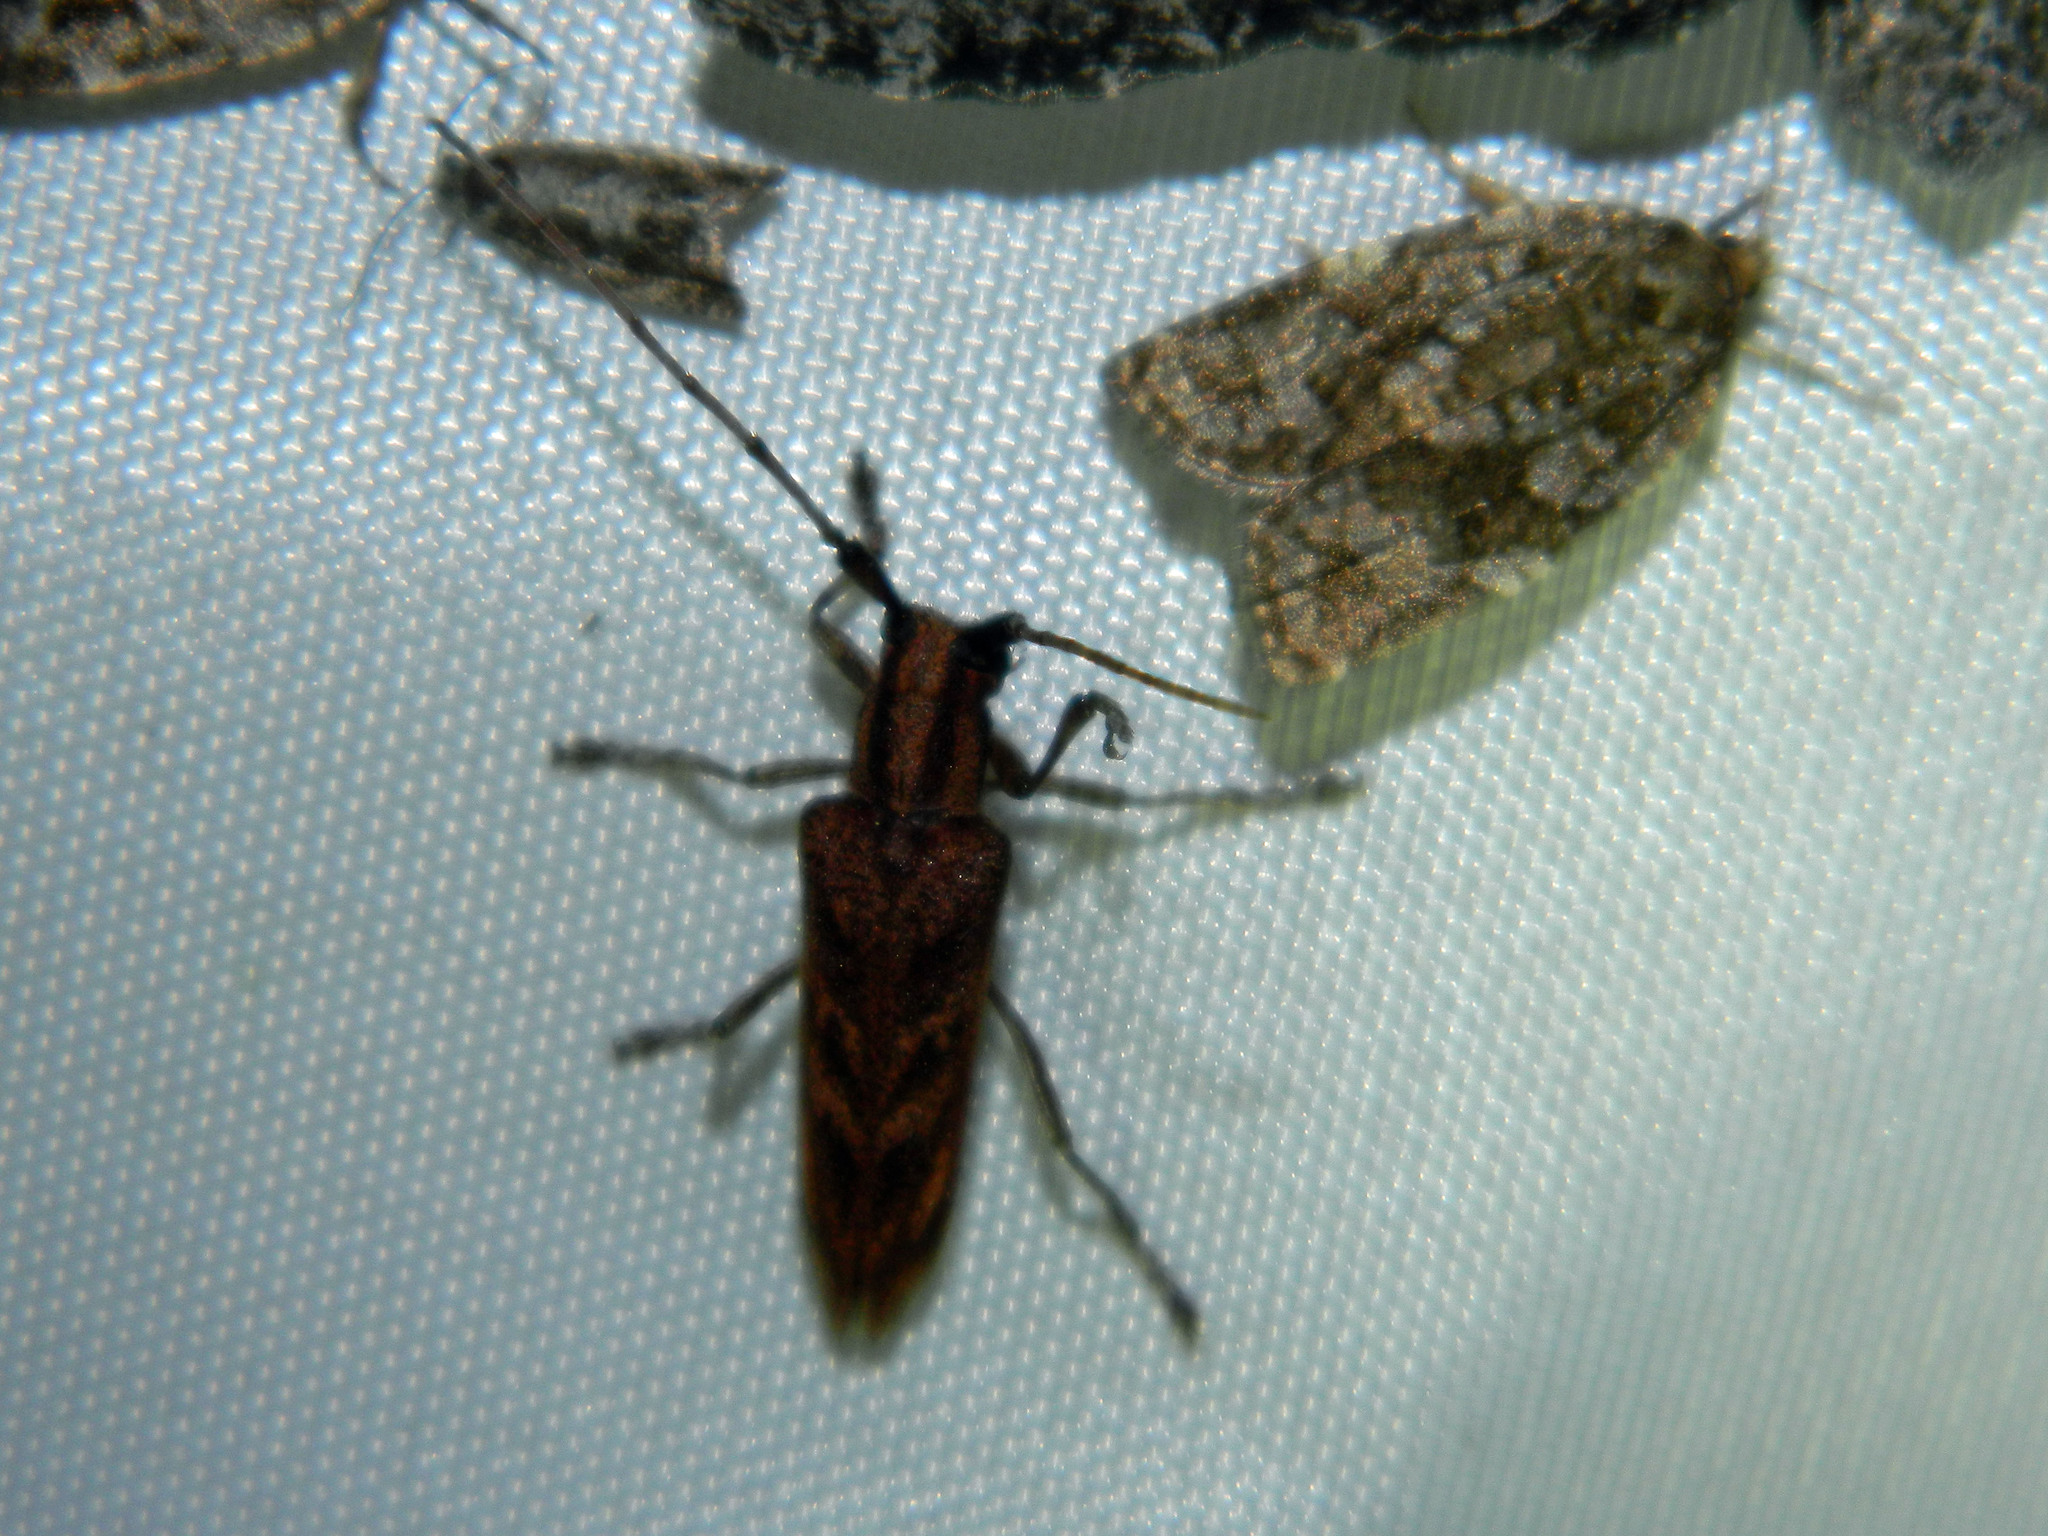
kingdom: Animalia
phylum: Arthropoda
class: Insecta
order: Coleoptera
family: Cerambycidae
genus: Saperda
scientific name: Saperda obliqua
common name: Alder borer
